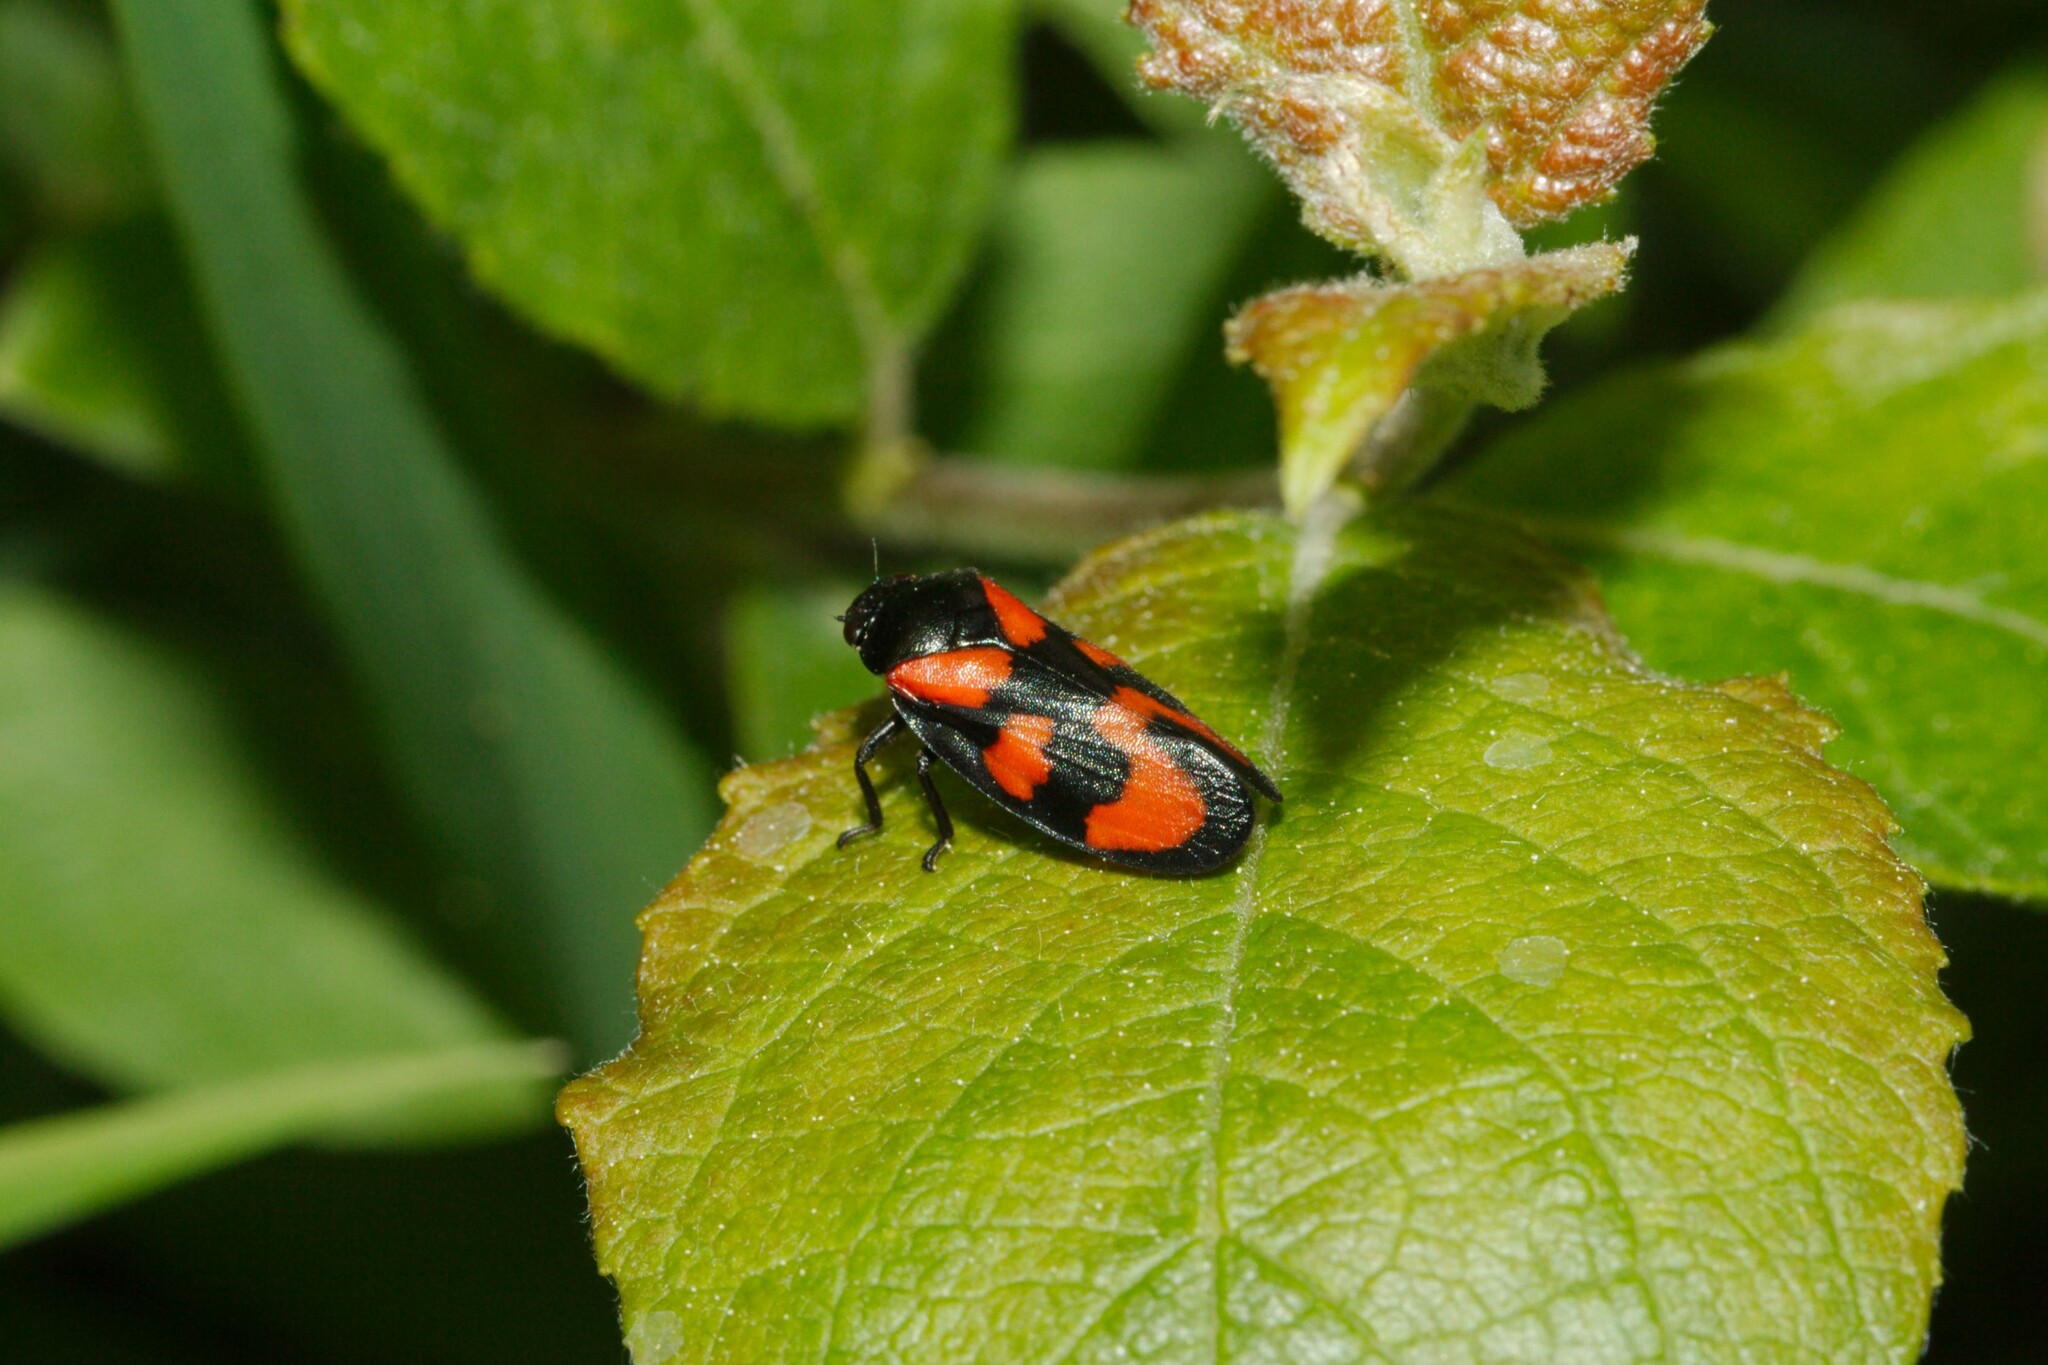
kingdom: Animalia
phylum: Arthropoda
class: Insecta
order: Hemiptera
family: Cercopidae
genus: Cercopis
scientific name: Cercopis vulnerata
